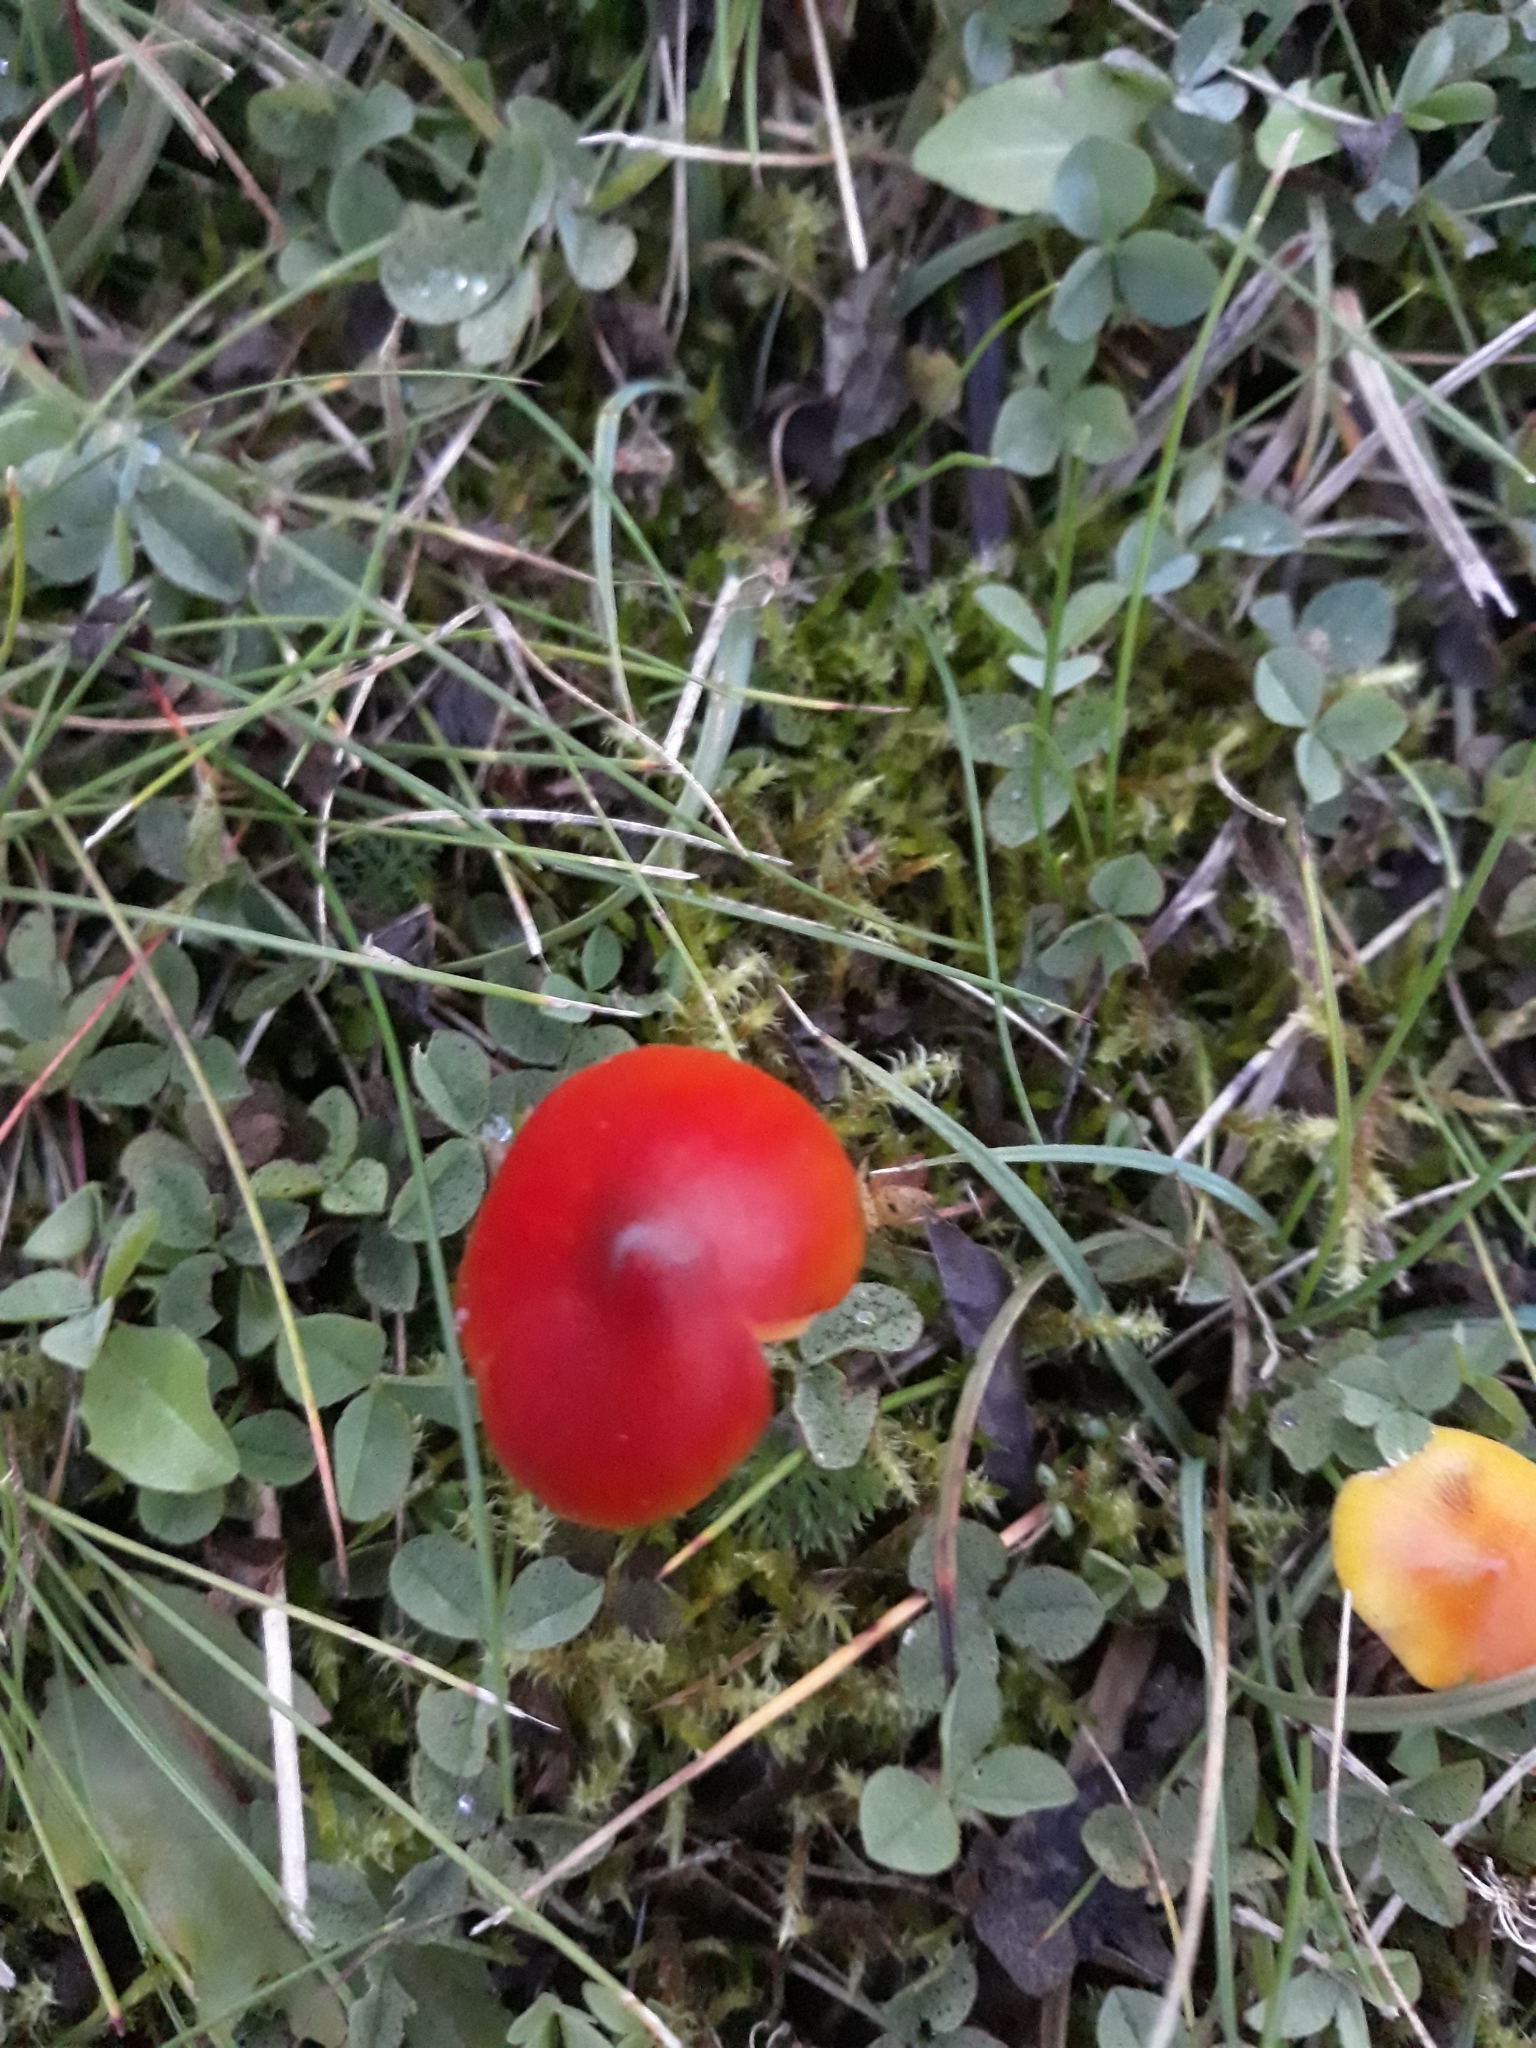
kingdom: Fungi
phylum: Basidiomycota
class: Agaricomycetes
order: Agaricales
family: Hygrophoraceae
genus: Hygrocybe
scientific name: Hygrocybe conica
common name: Blackening wax-cap
